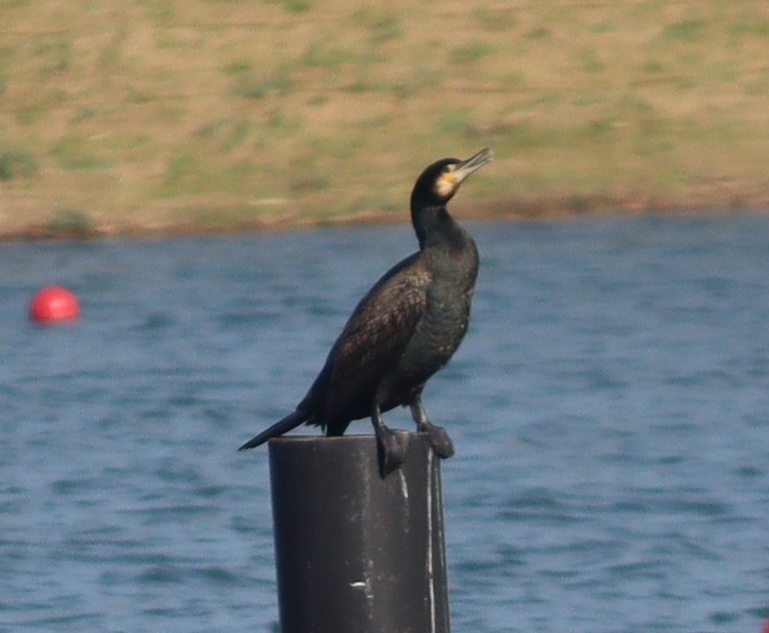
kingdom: Animalia
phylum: Chordata
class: Aves
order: Suliformes
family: Phalacrocoracidae
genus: Phalacrocorax
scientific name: Phalacrocorax carbo
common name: Great cormorant
